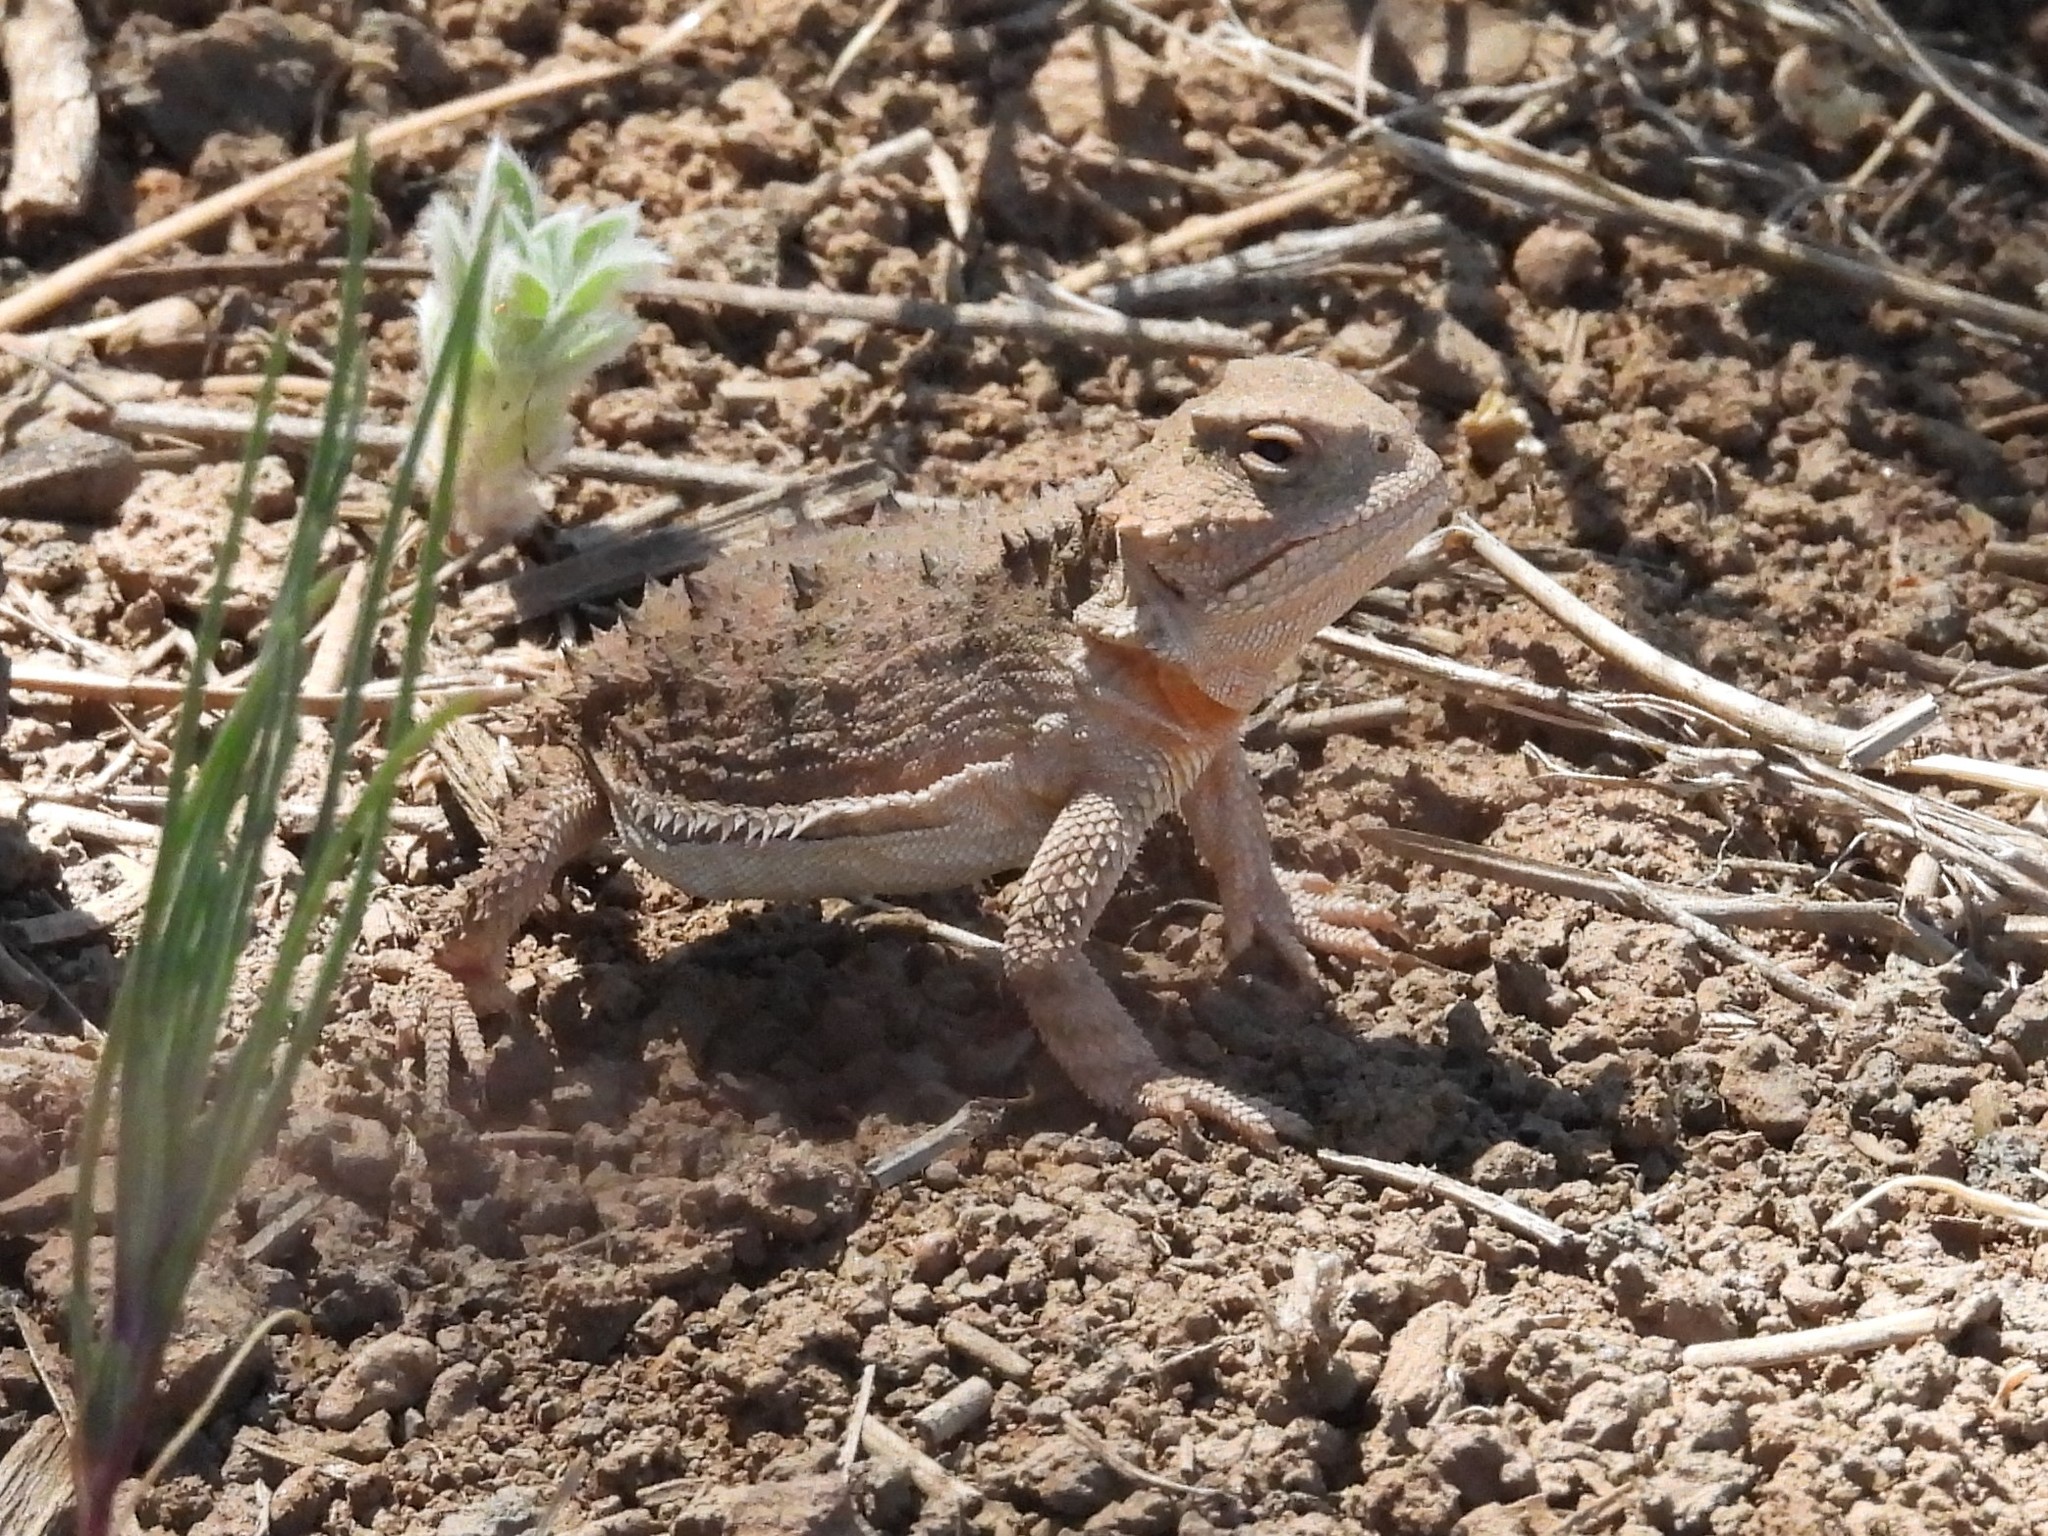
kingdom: Animalia
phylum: Chordata
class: Squamata
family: Phrynosomatidae
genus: Phrynosoma
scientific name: Phrynosoma hernandesi
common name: Greater short-horned lizard
